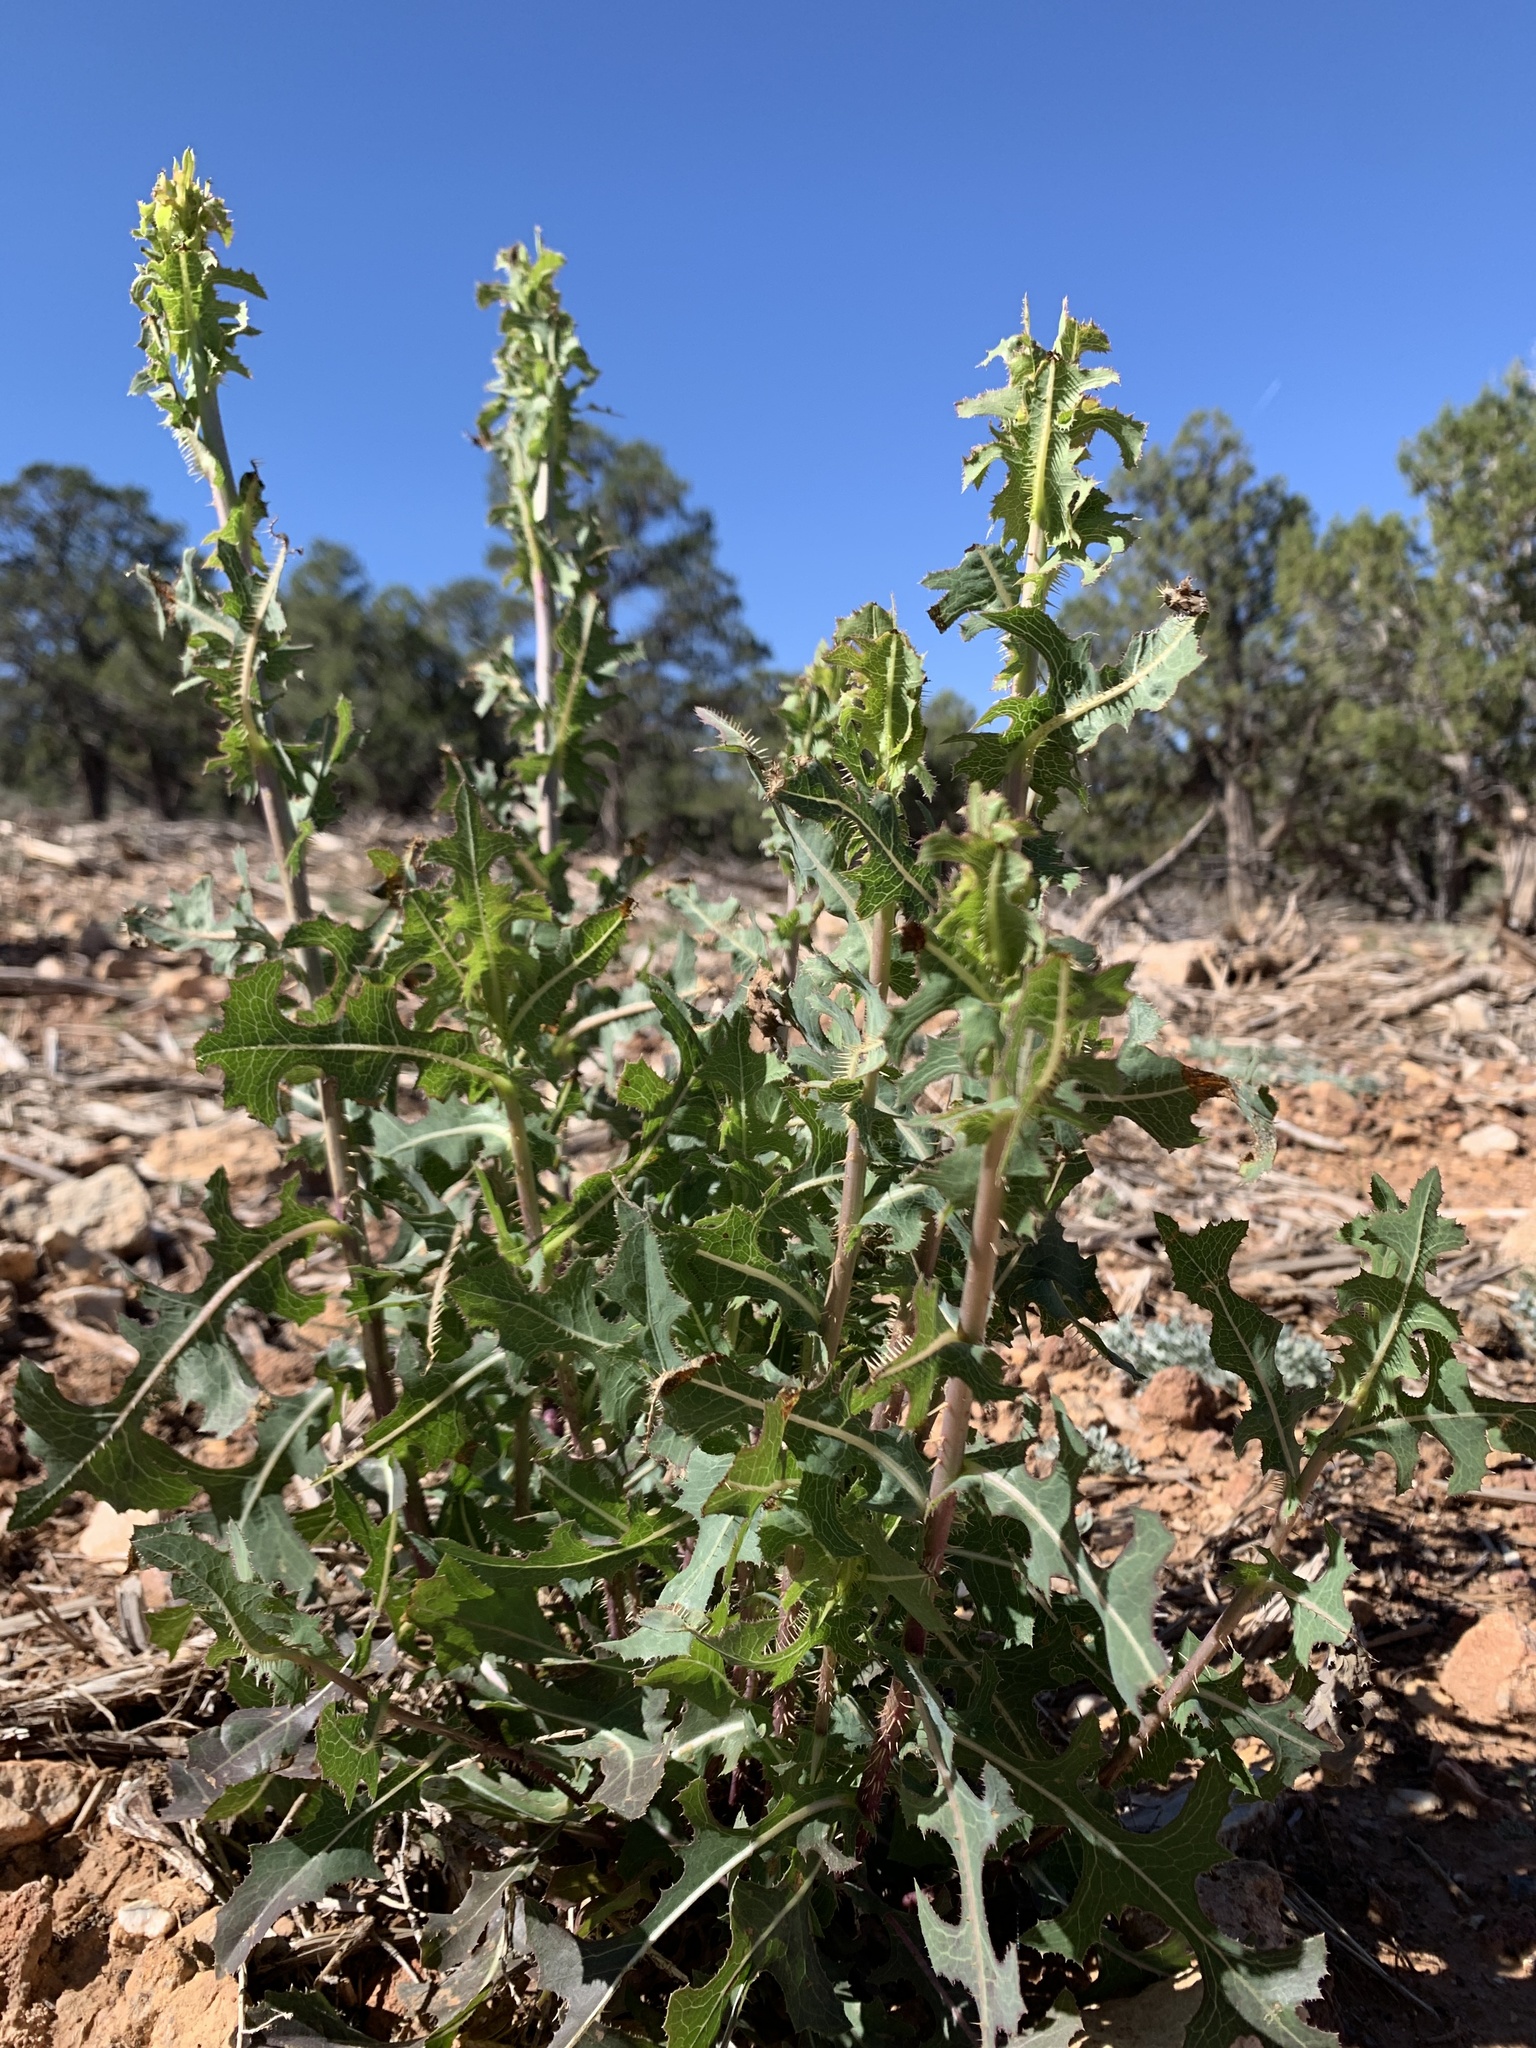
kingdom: Plantae
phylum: Tracheophyta
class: Magnoliopsida
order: Asterales
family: Asteraceae
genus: Lactuca
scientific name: Lactuca serriola
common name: Prickly lettuce
